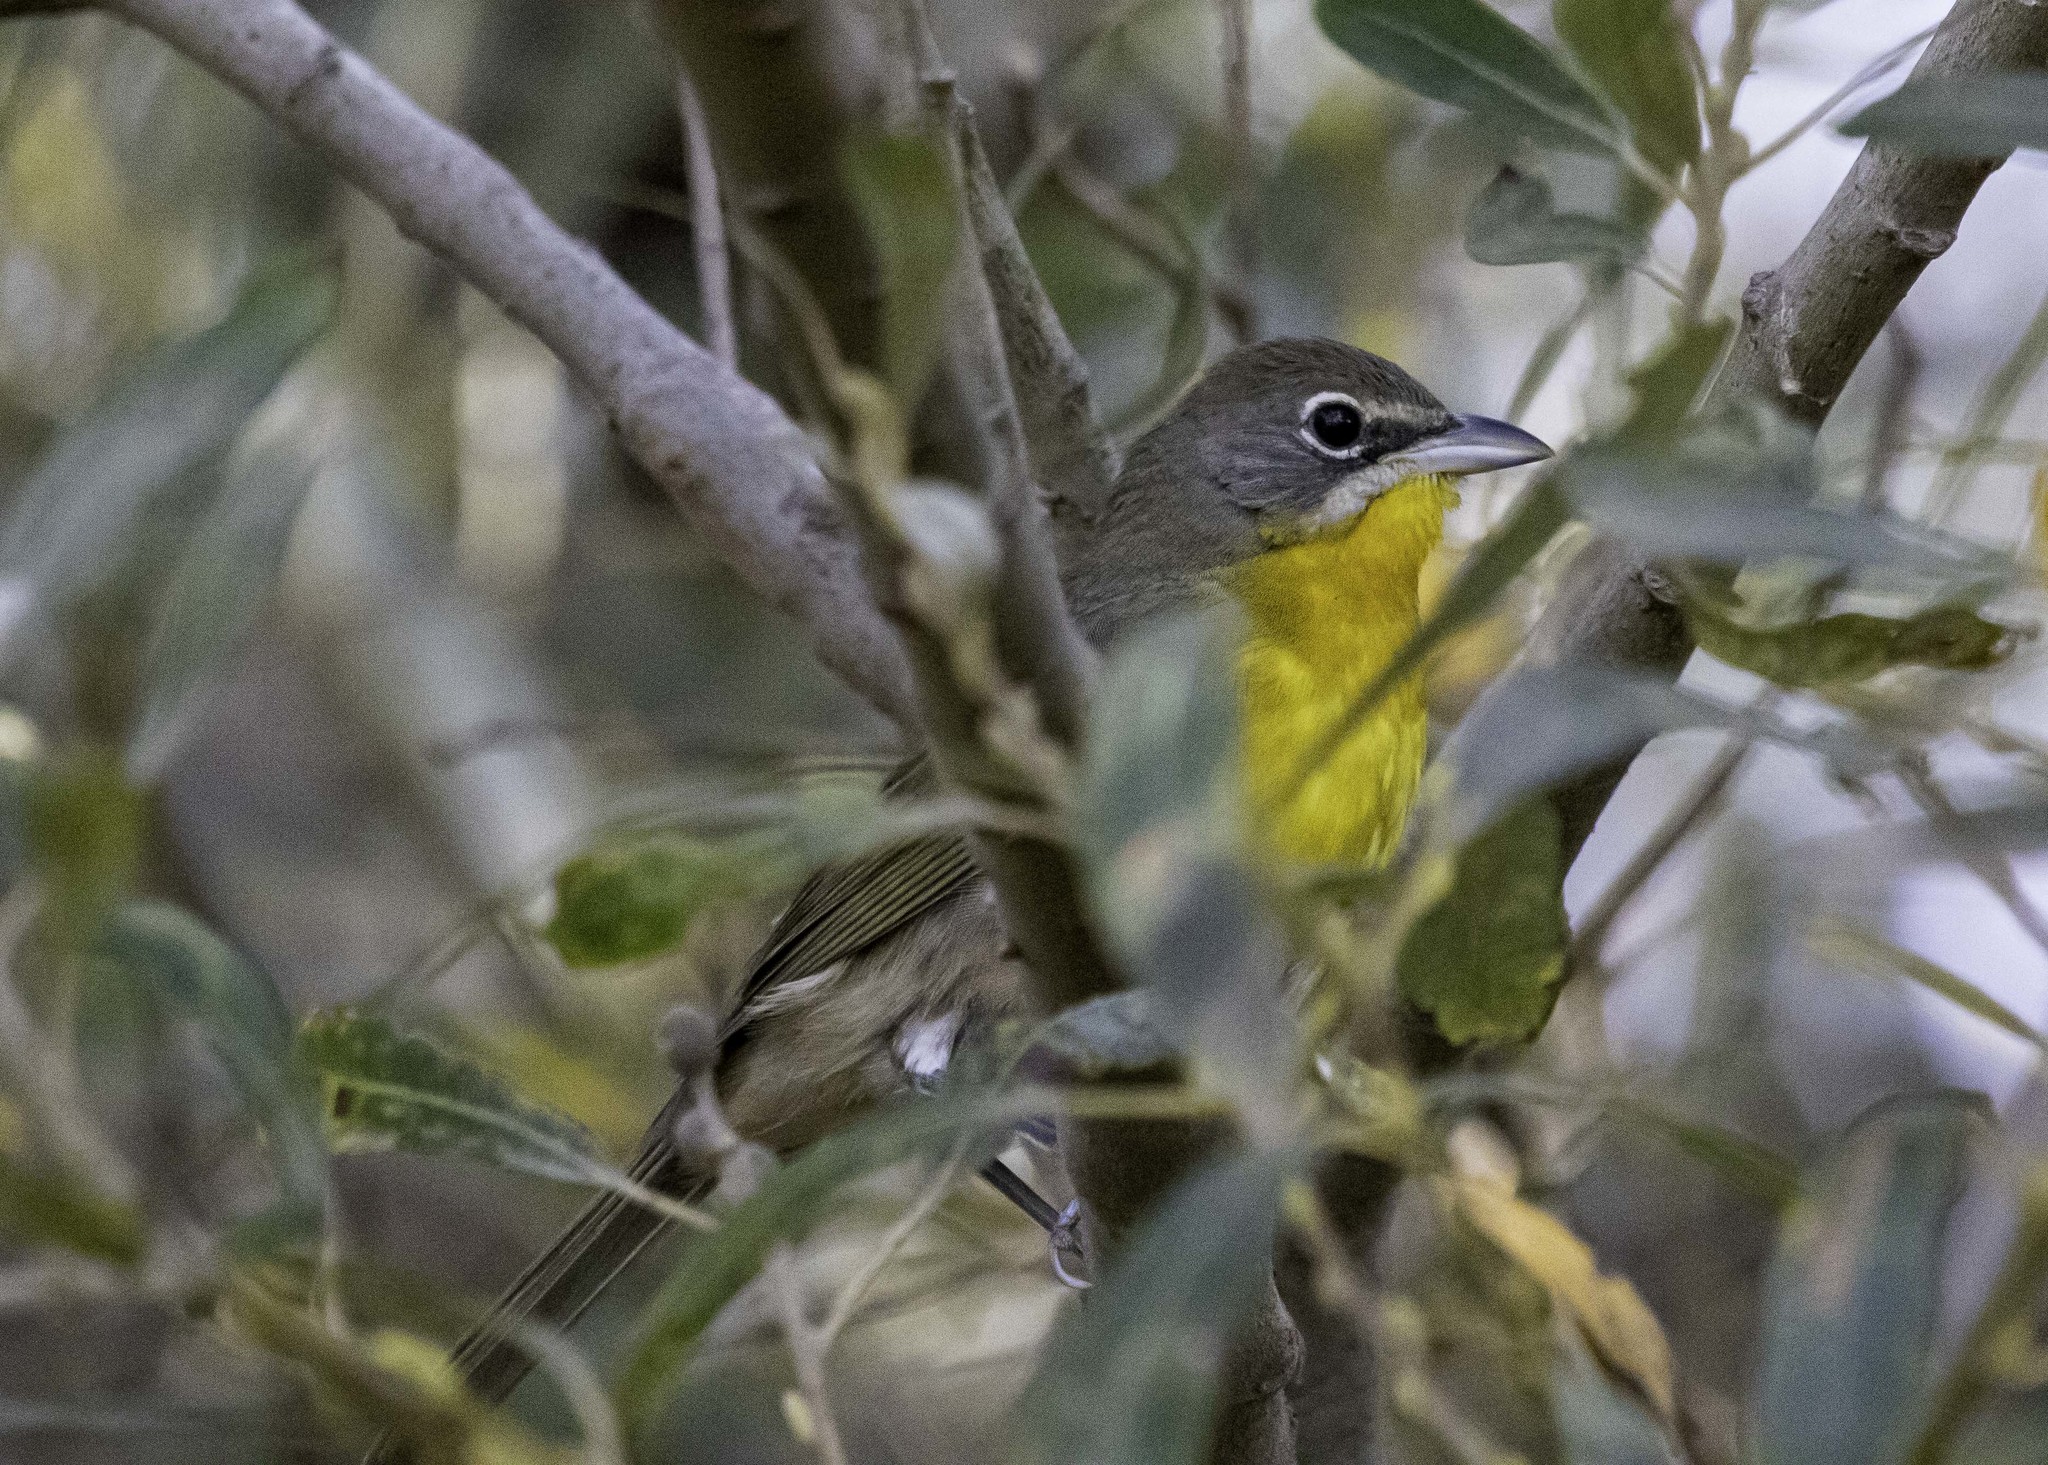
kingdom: Animalia
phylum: Chordata
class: Aves
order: Passeriformes
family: Parulidae
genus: Icteria
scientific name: Icteria virens
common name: Yellow-breasted chat
